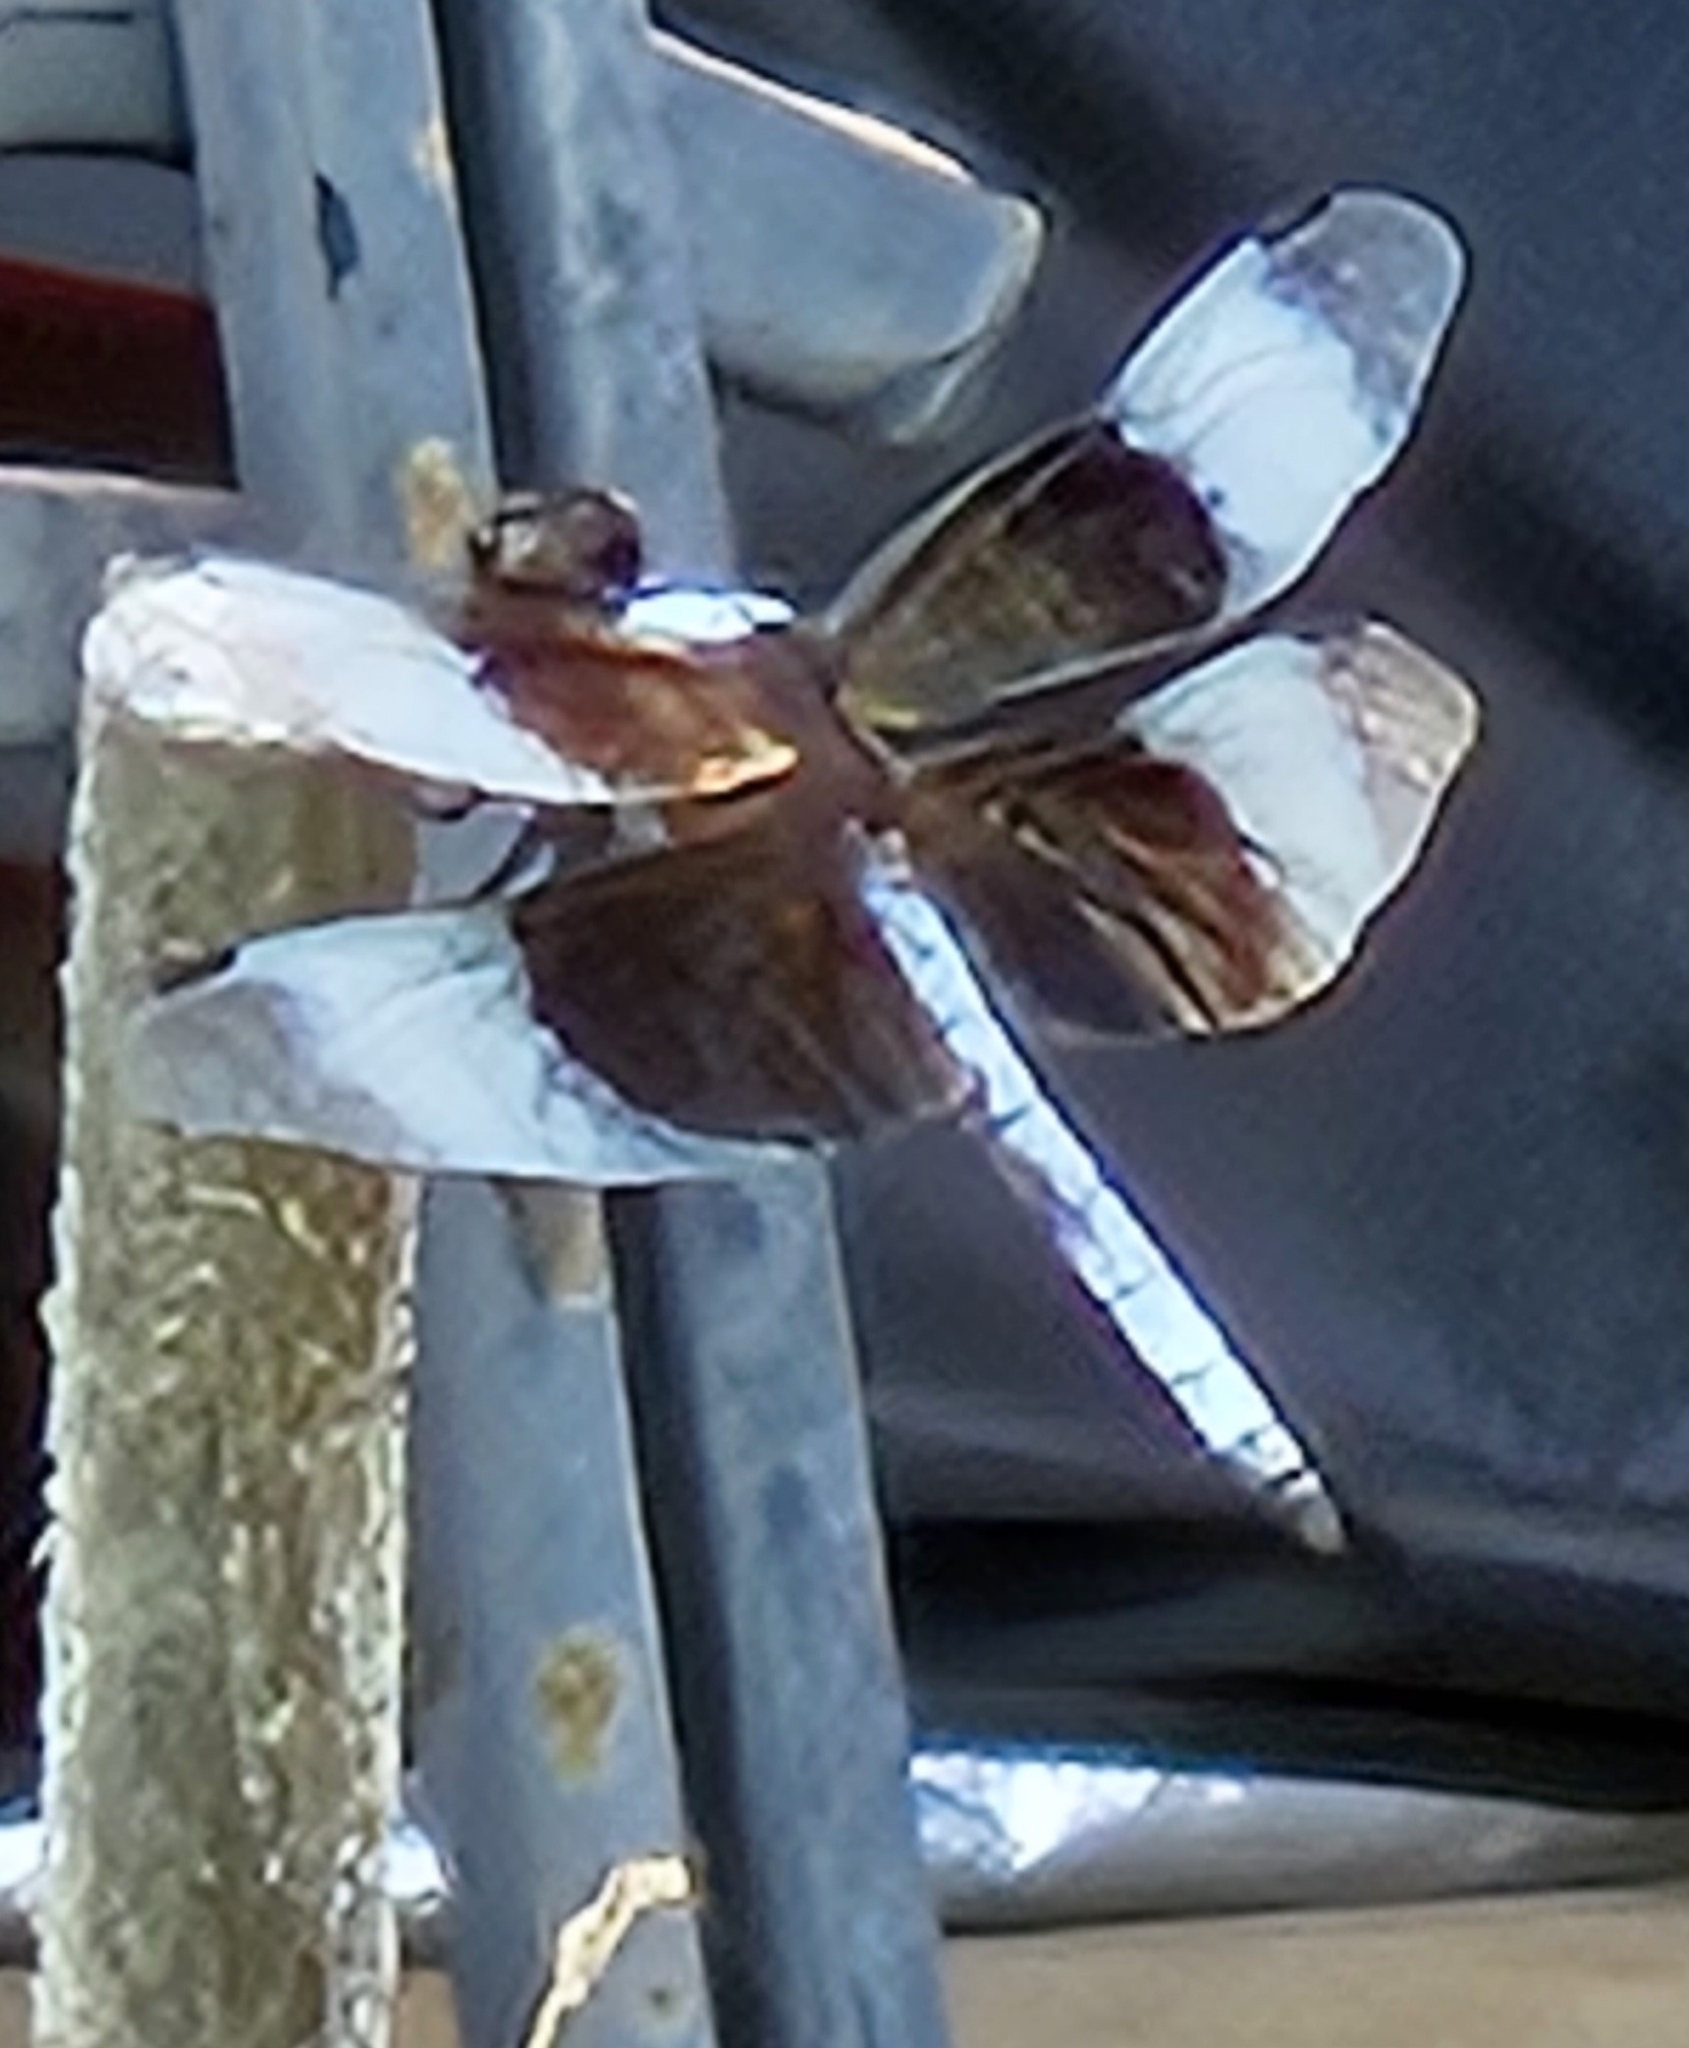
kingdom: Animalia
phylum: Arthropoda
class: Insecta
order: Odonata
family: Libellulidae
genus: Libellula
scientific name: Libellula luctuosa
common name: Widow skimmer
